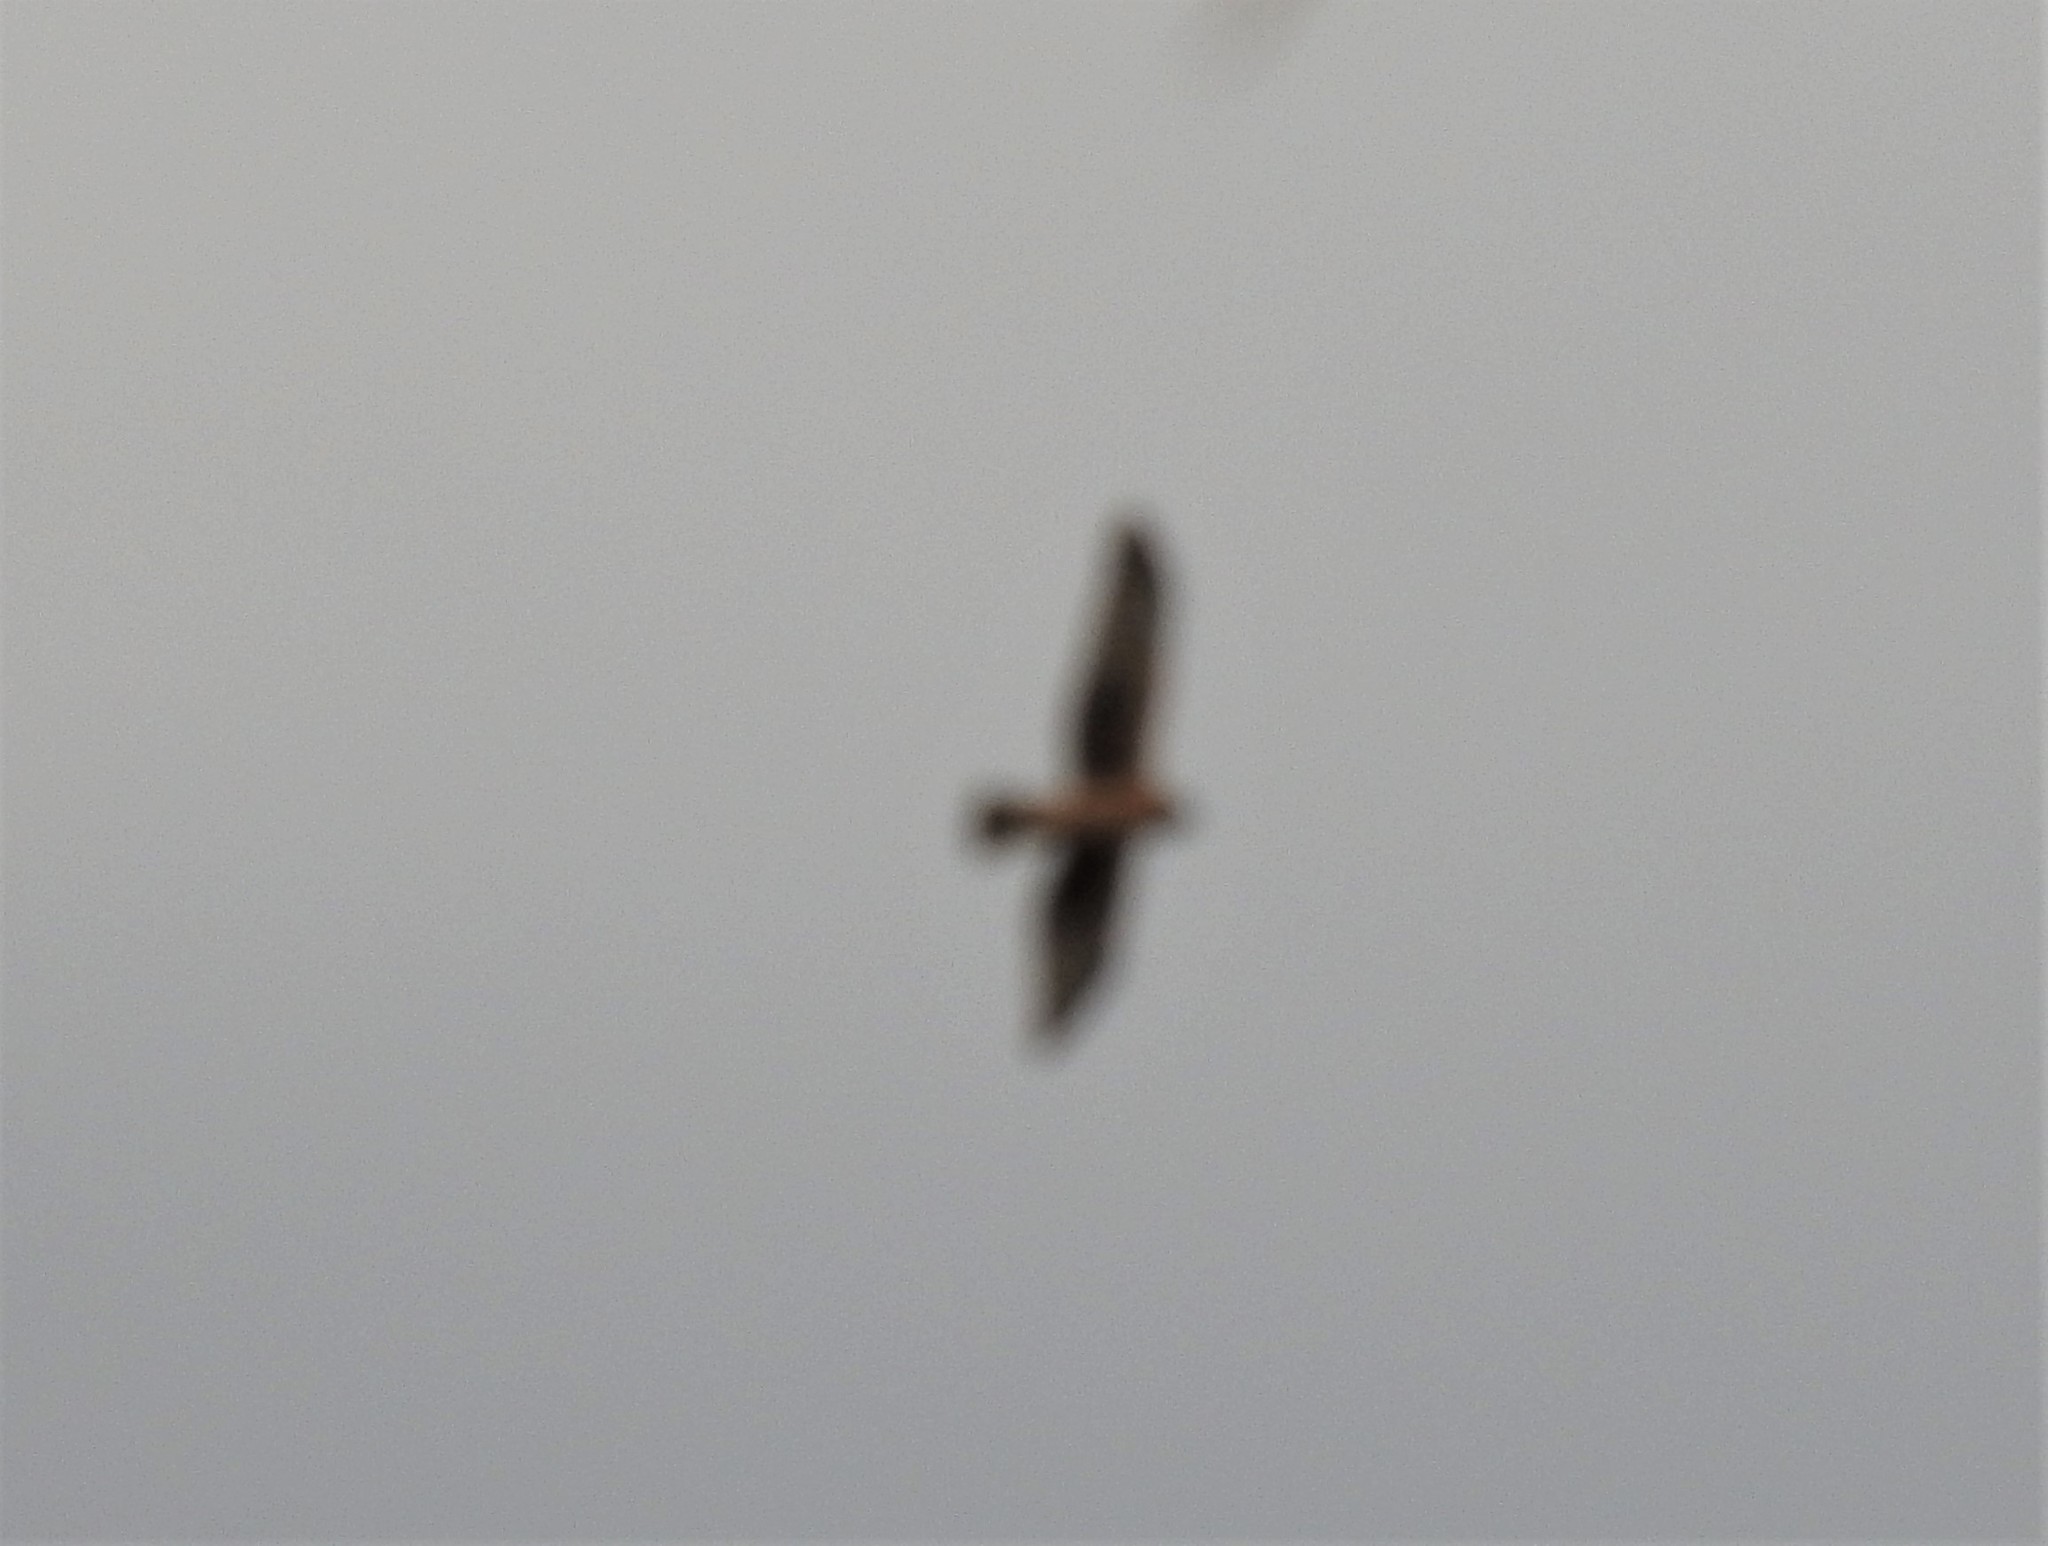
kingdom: Animalia
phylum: Chordata
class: Aves
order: Accipitriformes
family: Accipitridae
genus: Circus
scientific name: Circus cyaneus
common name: Hen harrier
